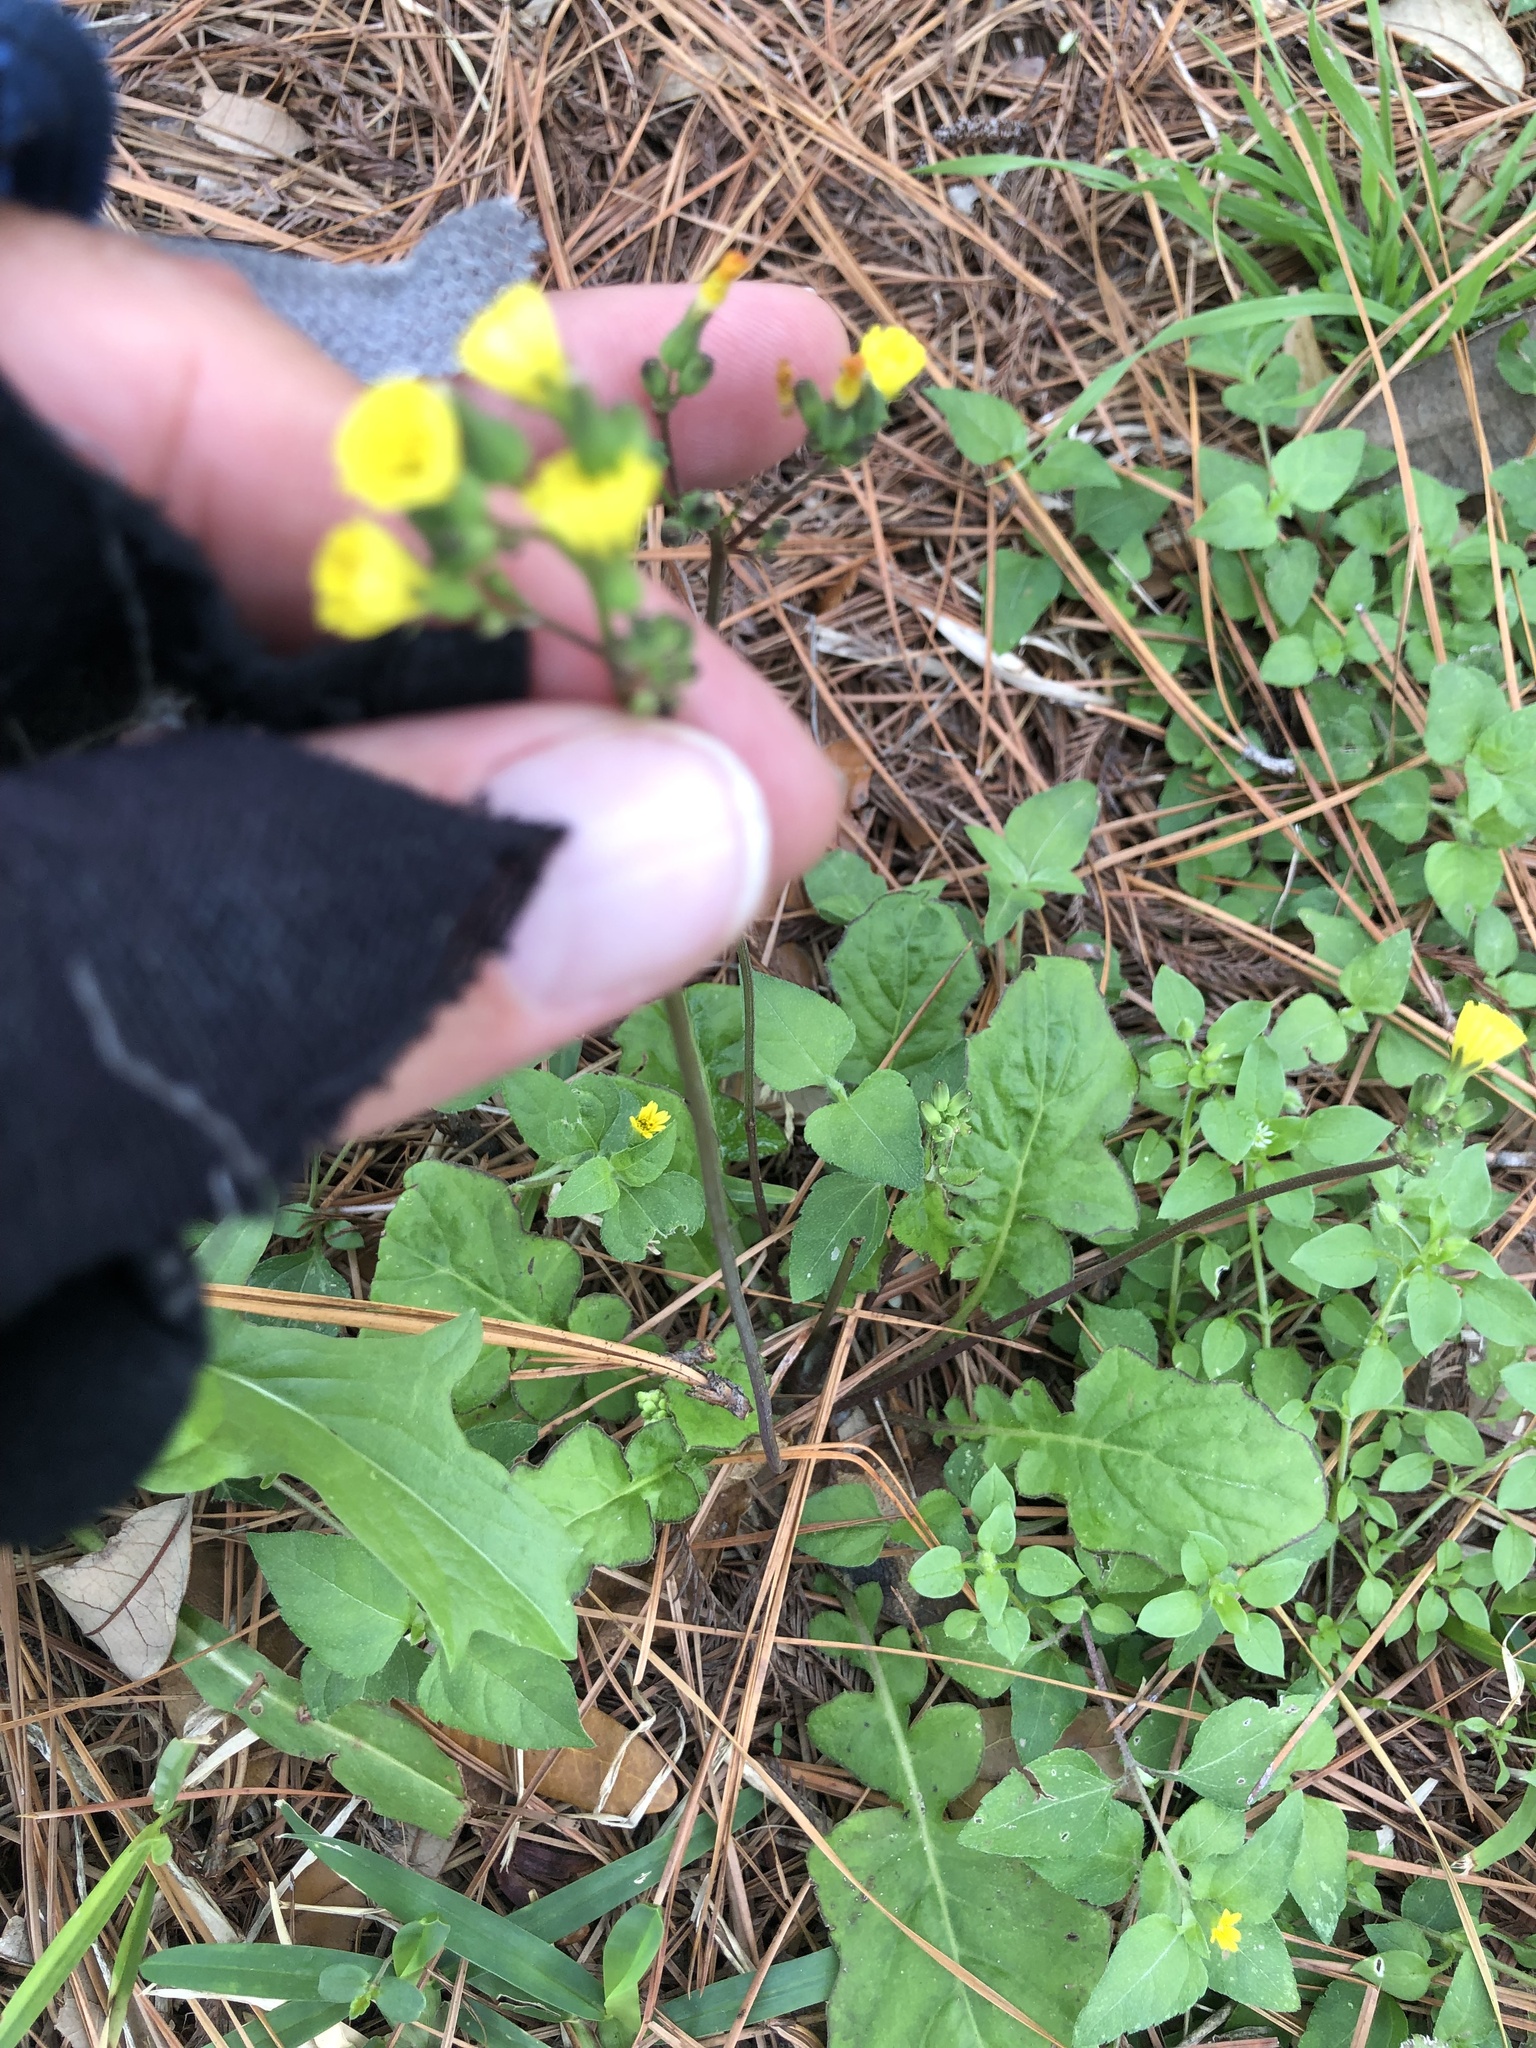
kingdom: Plantae
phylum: Tracheophyta
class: Magnoliopsida
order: Asterales
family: Asteraceae
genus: Youngia
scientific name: Youngia japonica
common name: Oriental false hawksbeard
